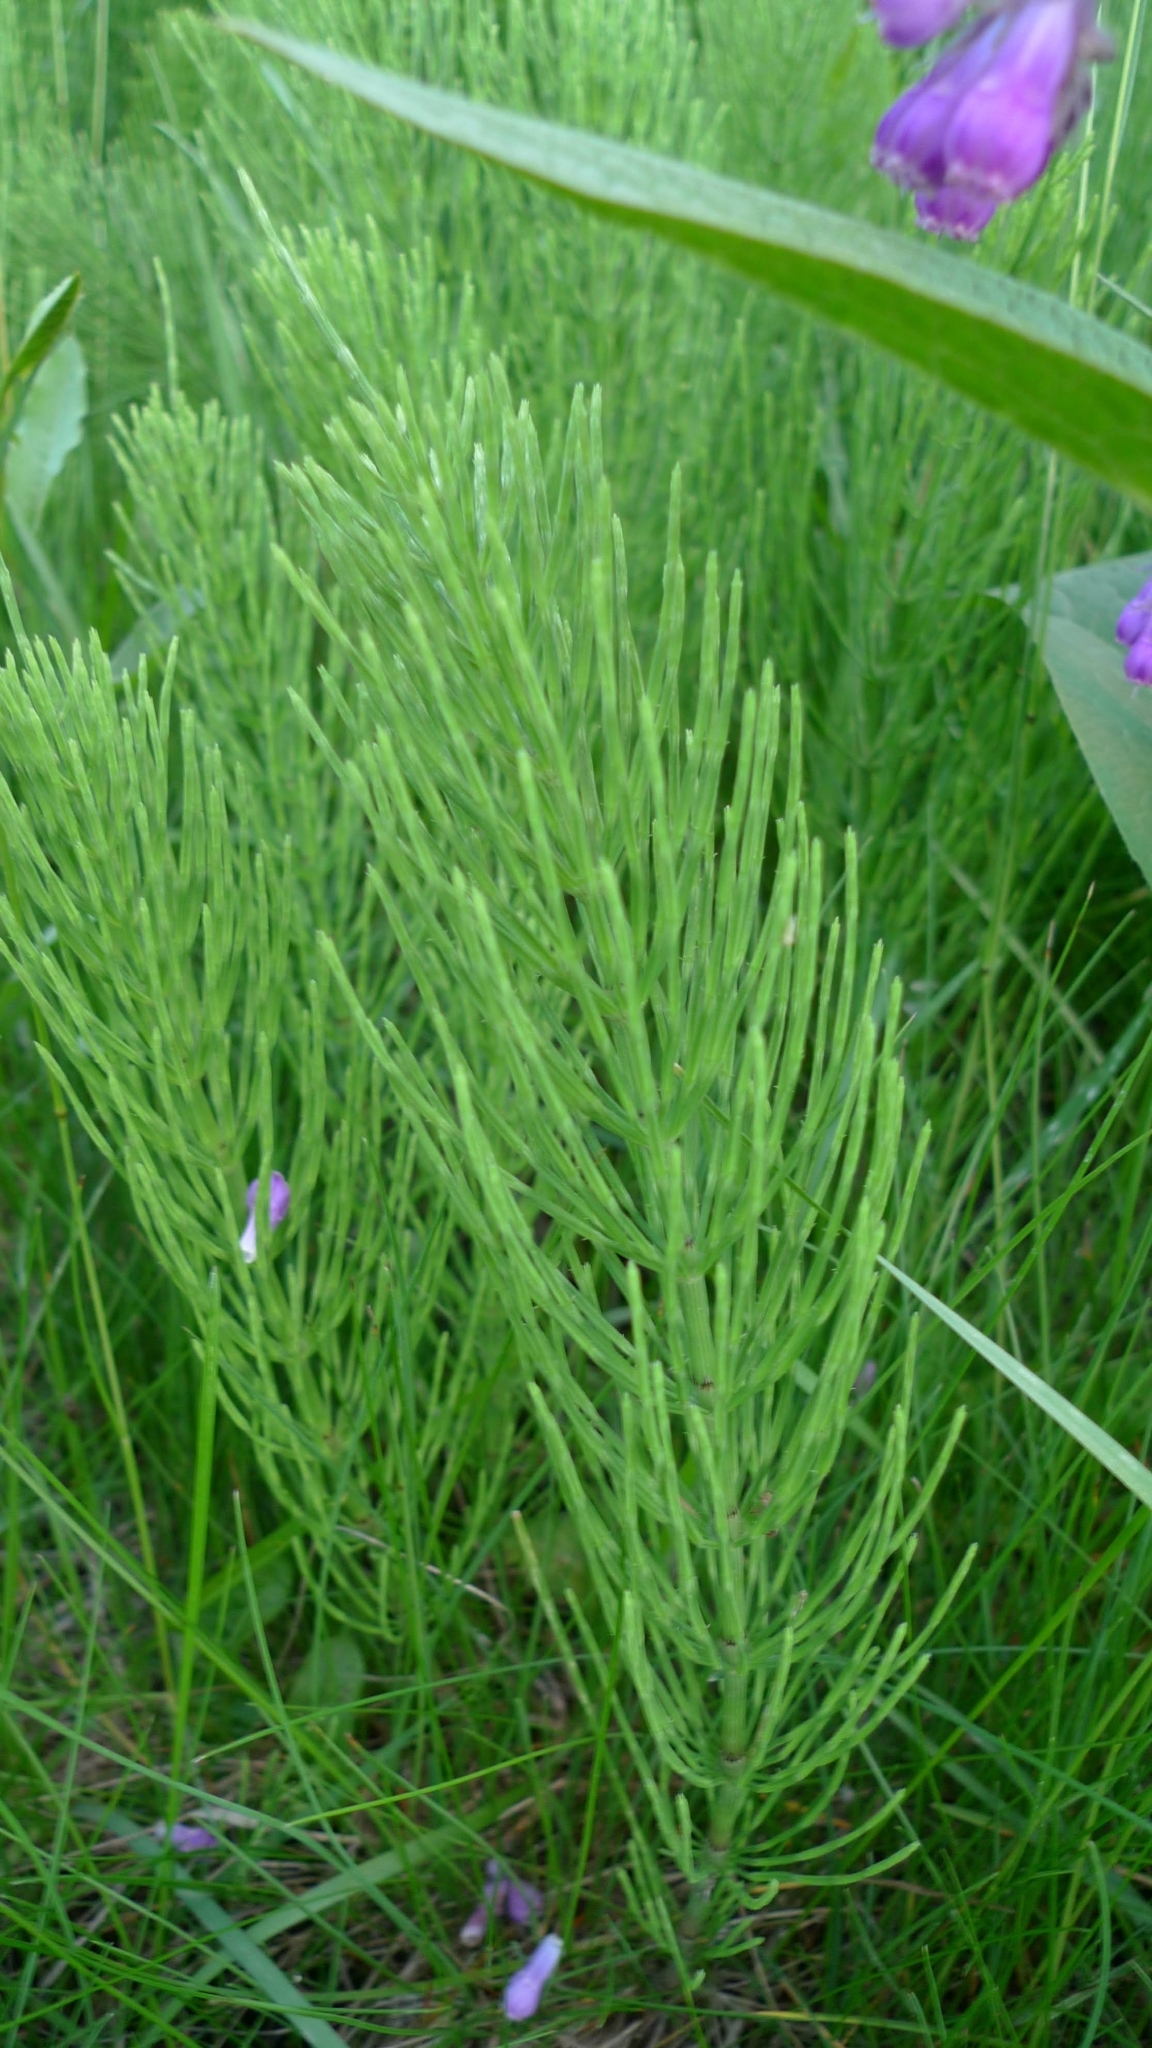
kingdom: Plantae
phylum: Tracheophyta
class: Polypodiopsida
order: Equisetales
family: Equisetaceae
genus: Equisetum
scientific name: Equisetum arvense
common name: Field horsetail
